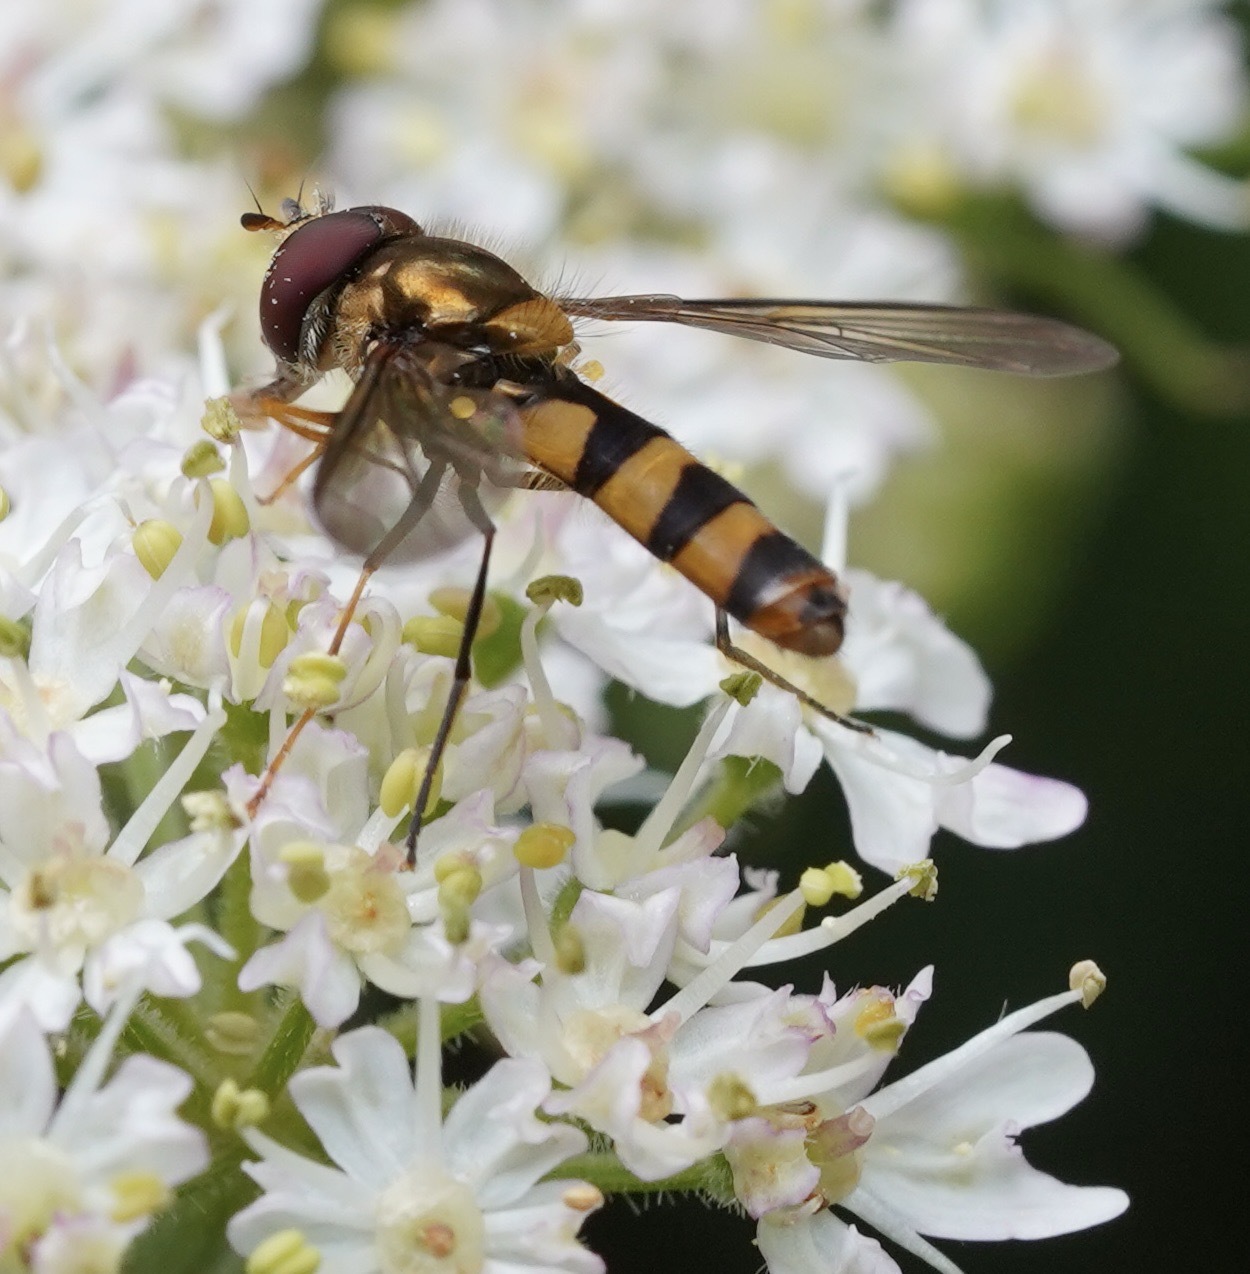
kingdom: Animalia
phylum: Arthropoda
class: Insecta
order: Diptera
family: Syrphidae
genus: Meliscaeva
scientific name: Meliscaeva cinctella
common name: American thintail fly
